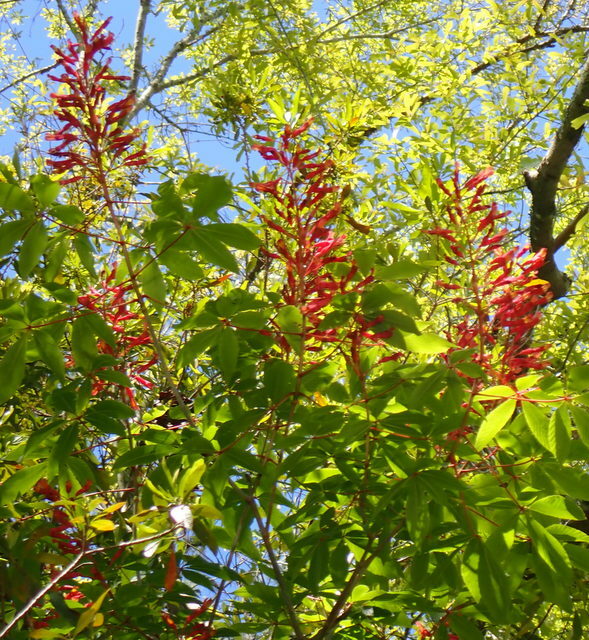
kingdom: Plantae
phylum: Tracheophyta
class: Magnoliopsida
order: Sapindales
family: Sapindaceae
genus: Aesculus
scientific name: Aesculus pavia
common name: Red buckeye
